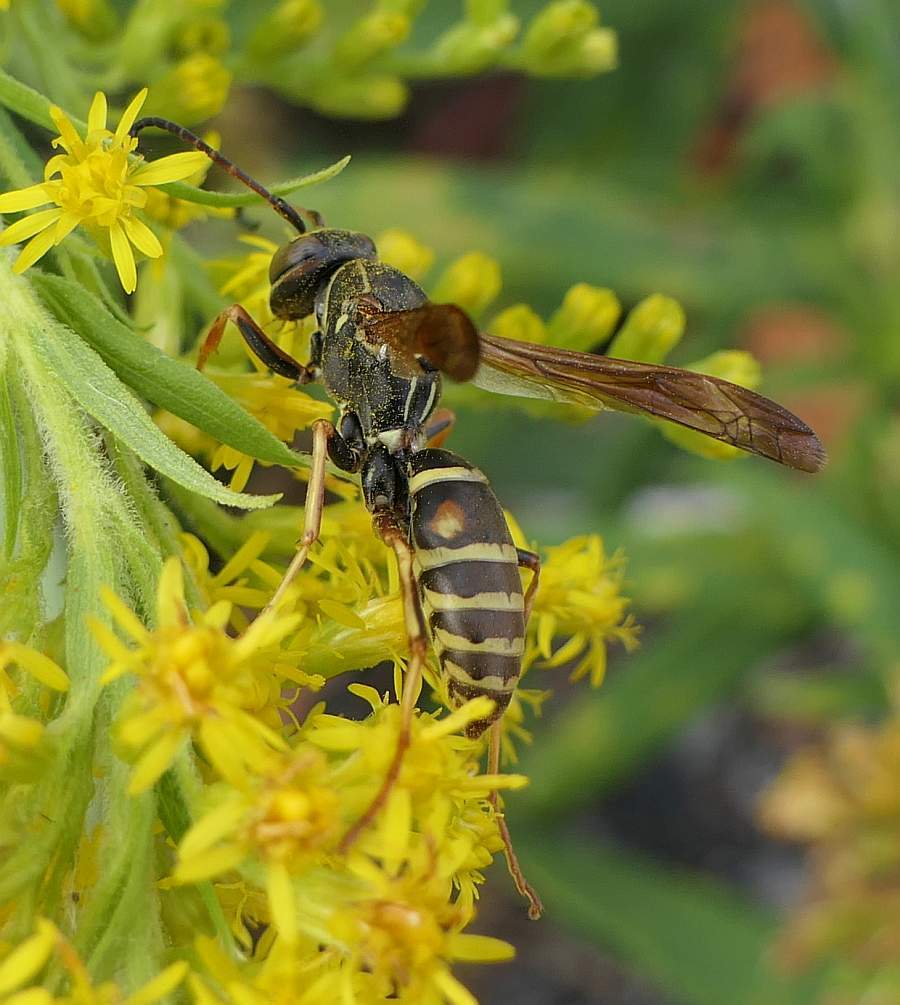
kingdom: Animalia
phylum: Arthropoda
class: Insecta
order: Hymenoptera
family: Eumenidae
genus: Polistes
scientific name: Polistes fuscatus
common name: Dark paper wasp
